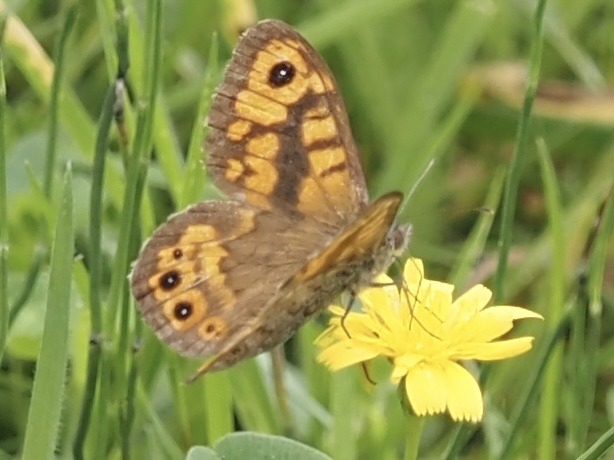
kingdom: Animalia
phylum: Arthropoda
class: Insecta
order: Lepidoptera
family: Nymphalidae
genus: Pararge
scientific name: Pararge Lasiommata megera
